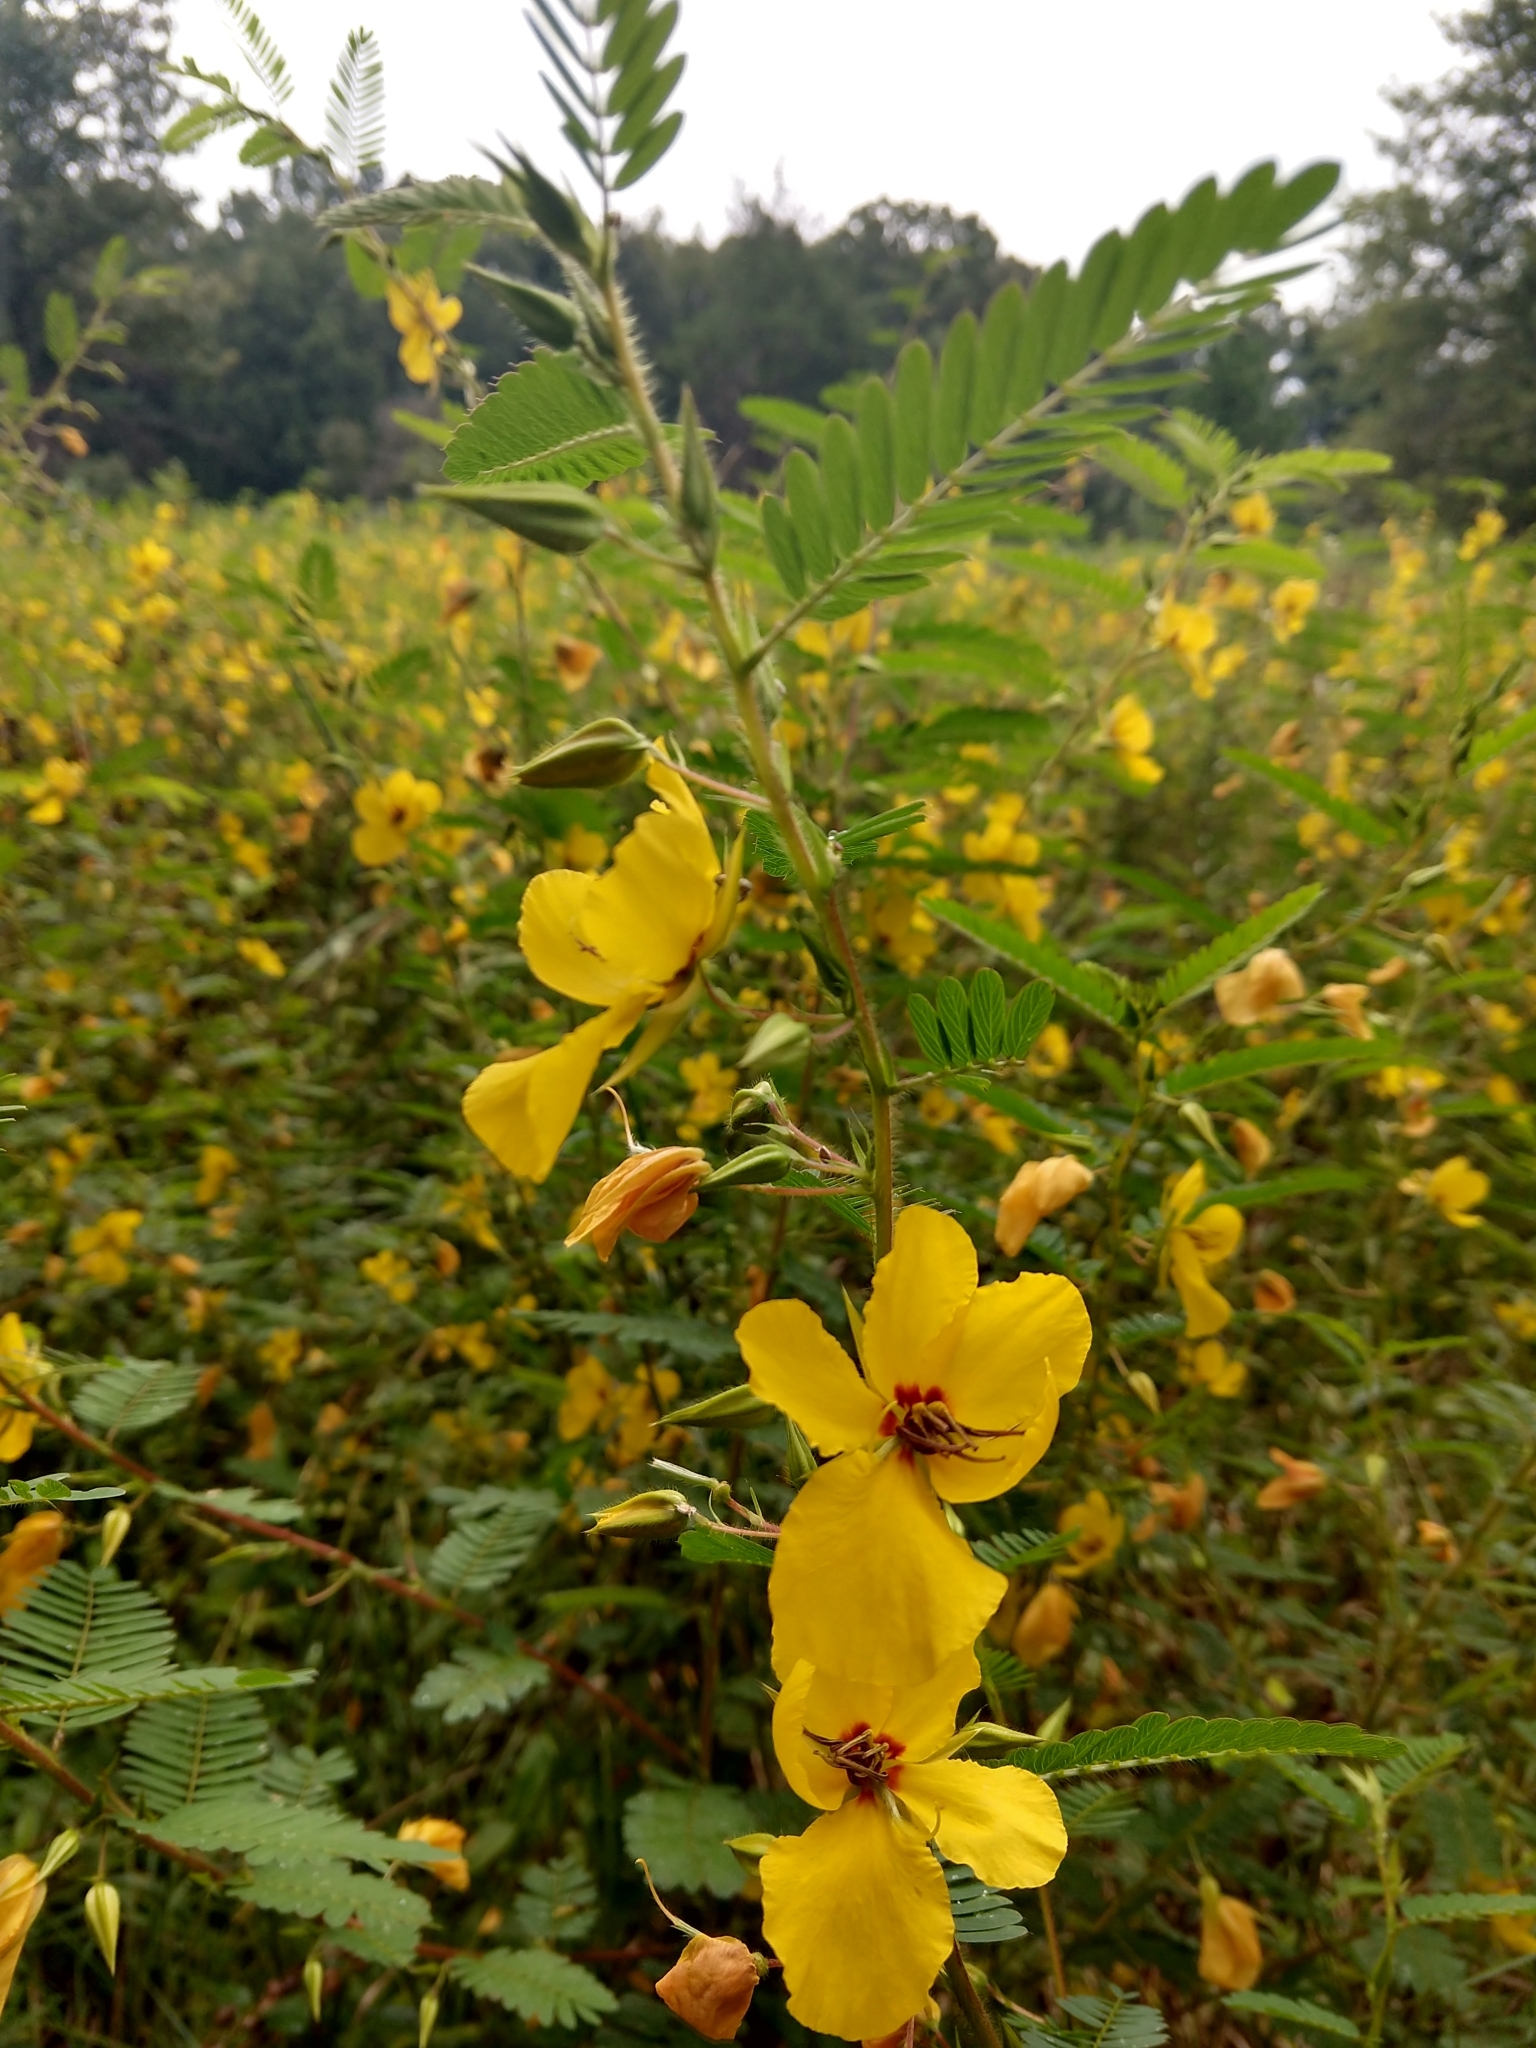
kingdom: Plantae
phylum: Tracheophyta
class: Magnoliopsida
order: Fabales
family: Fabaceae
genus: Chamaecrista
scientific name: Chamaecrista fasciculata
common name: Golden cassia
